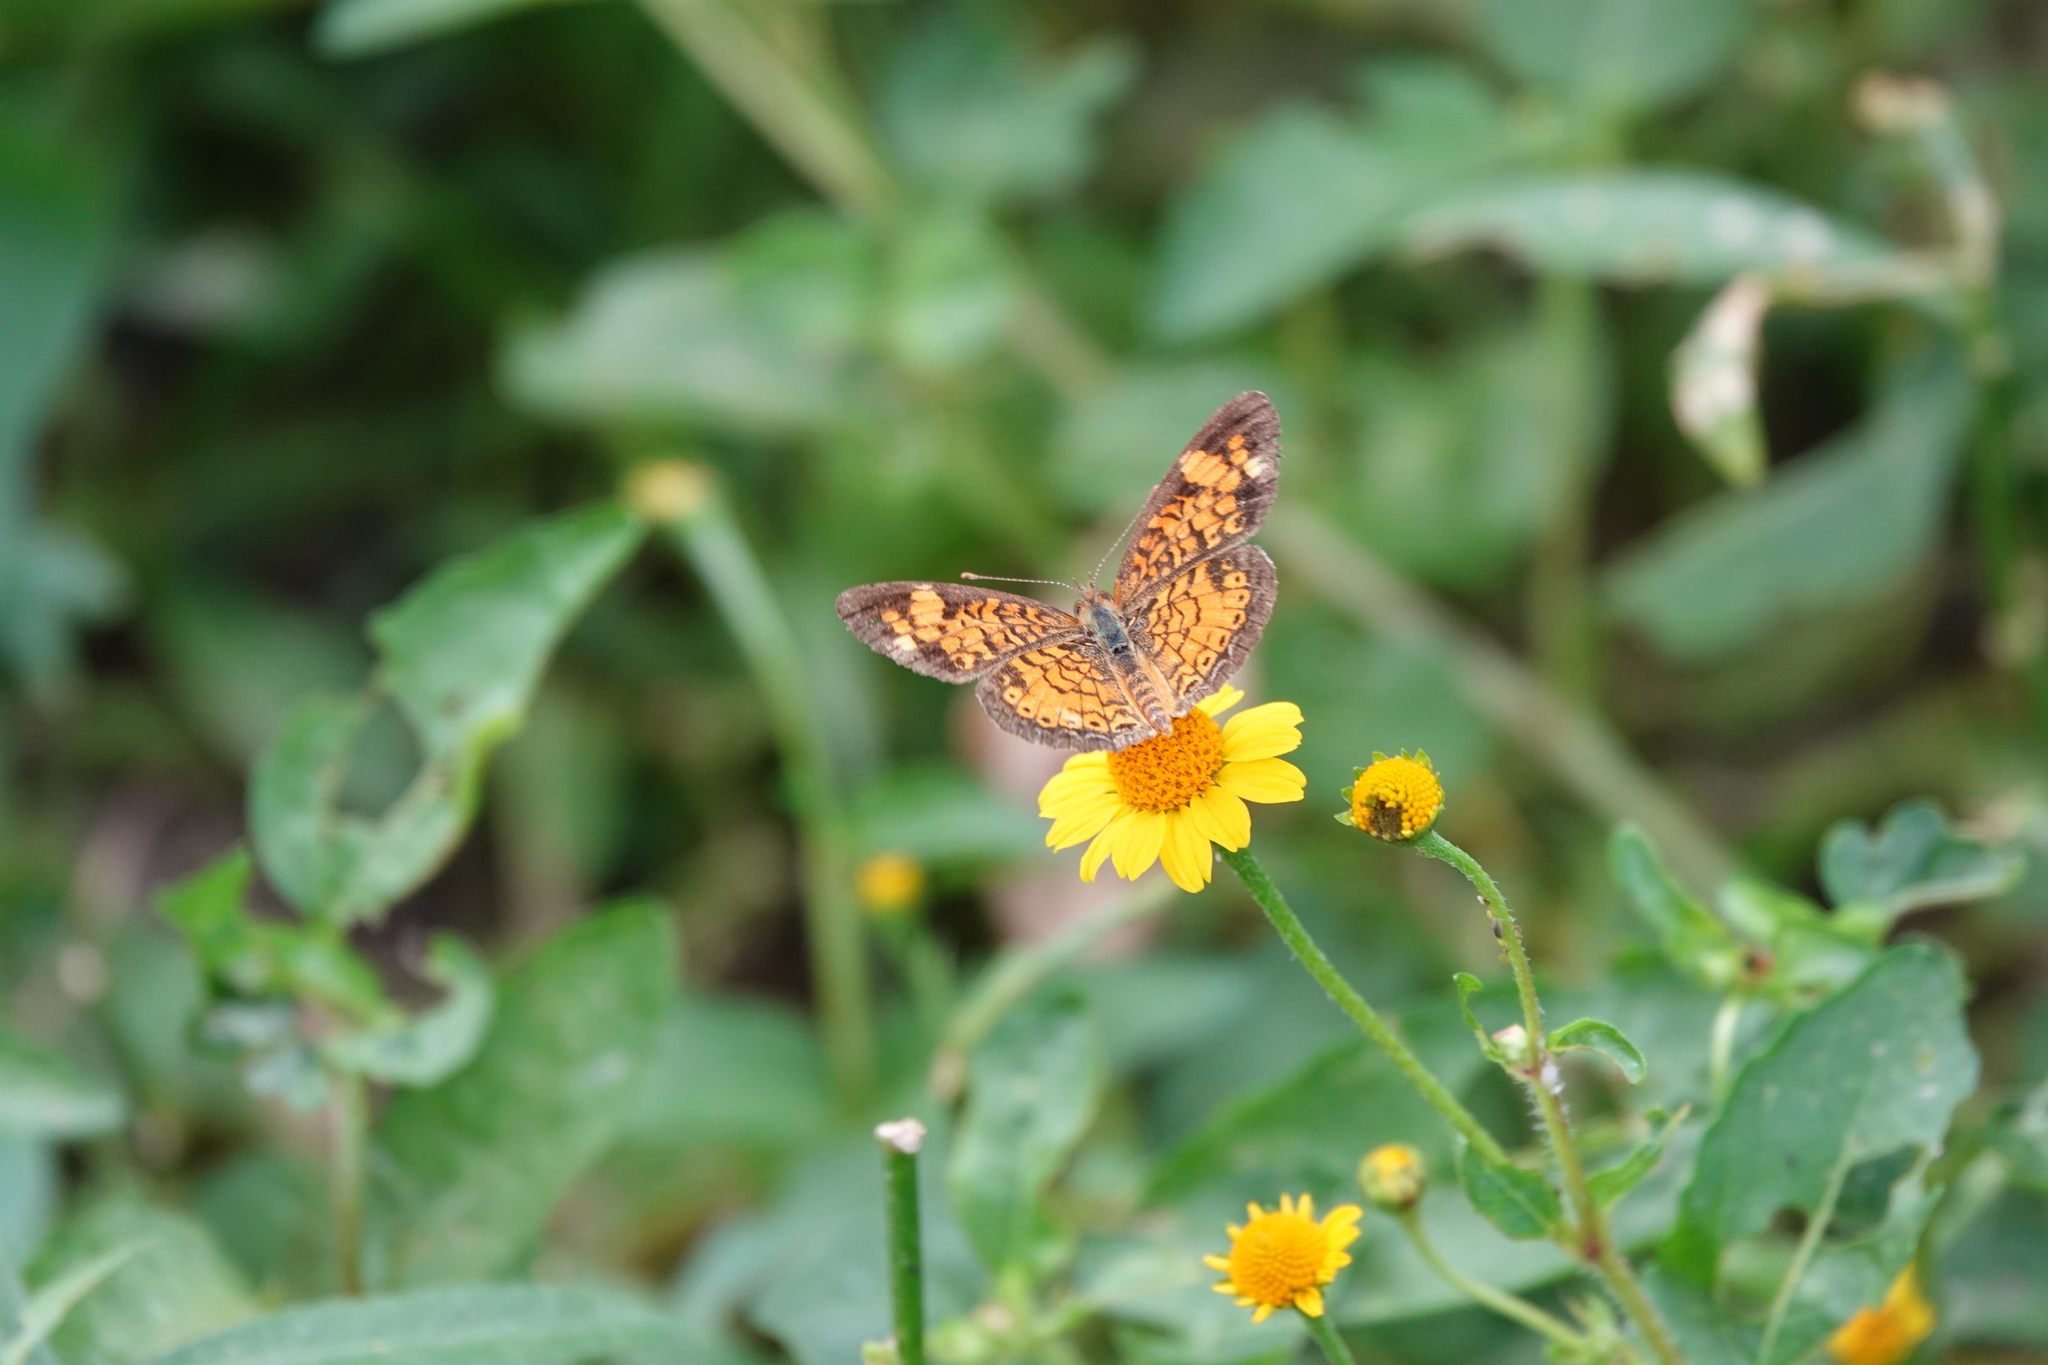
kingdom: Animalia
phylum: Arthropoda
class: Insecta
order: Lepidoptera
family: Nymphalidae
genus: Phyciodes
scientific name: Phyciodes tharos
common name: Pearl crescent
